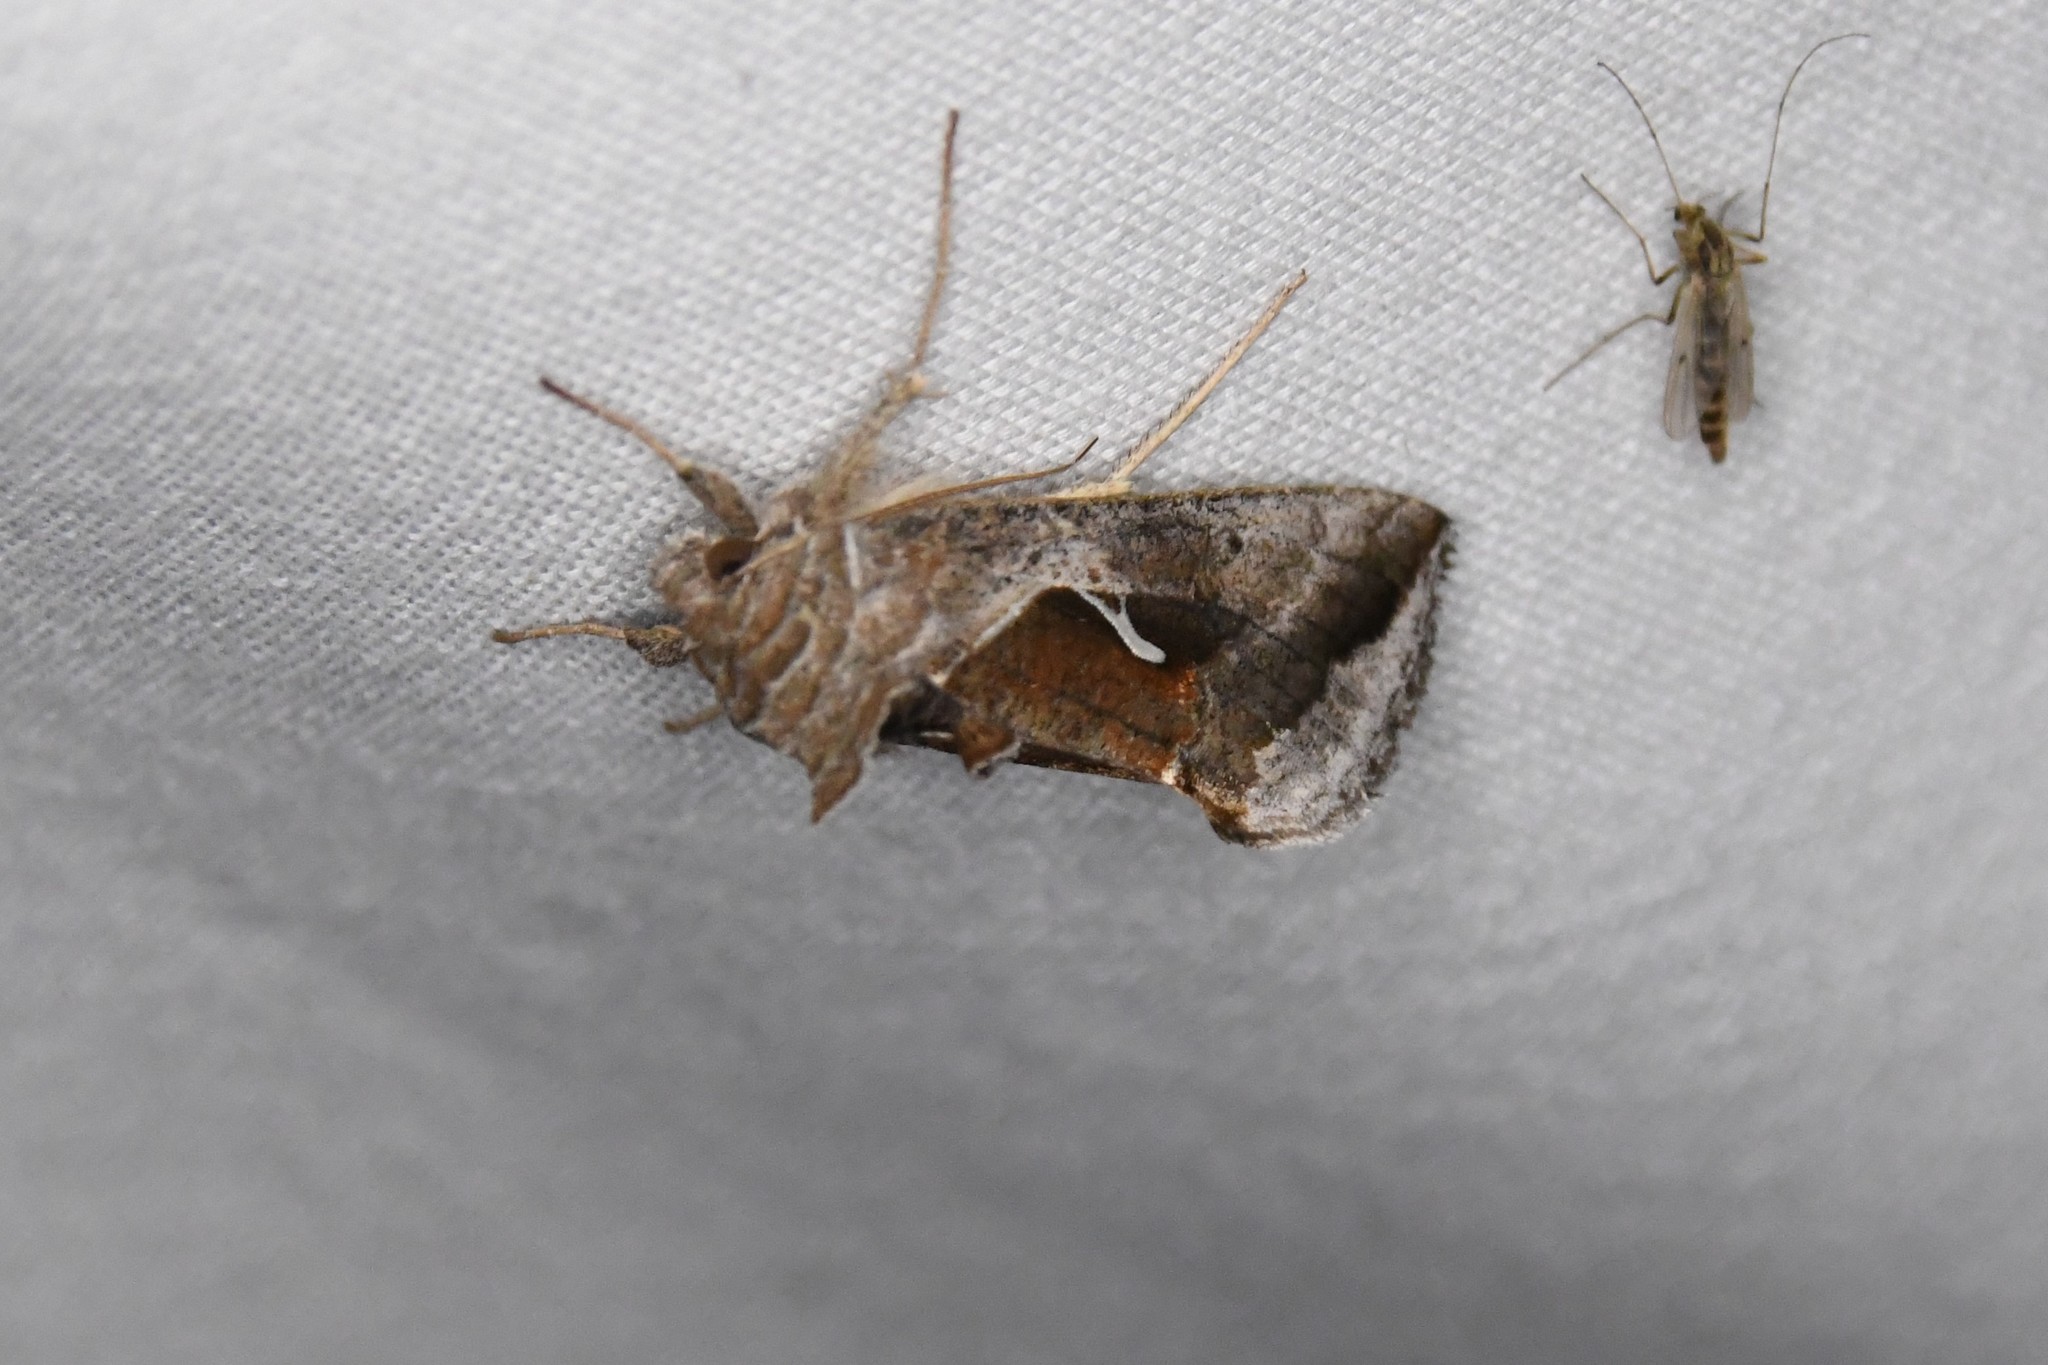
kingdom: Animalia
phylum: Arthropoda
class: Insecta
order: Lepidoptera
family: Noctuidae
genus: Anagrapha
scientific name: Anagrapha falcifera
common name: Celery looper
